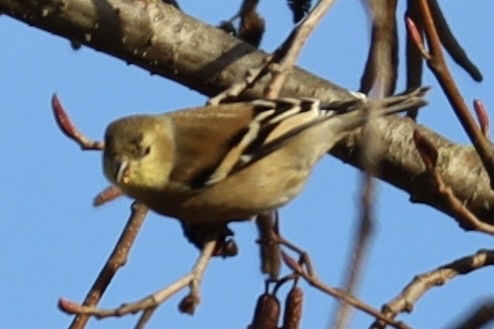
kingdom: Animalia
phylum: Chordata
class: Aves
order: Passeriformes
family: Fringillidae
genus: Spinus
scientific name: Spinus tristis
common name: American goldfinch
